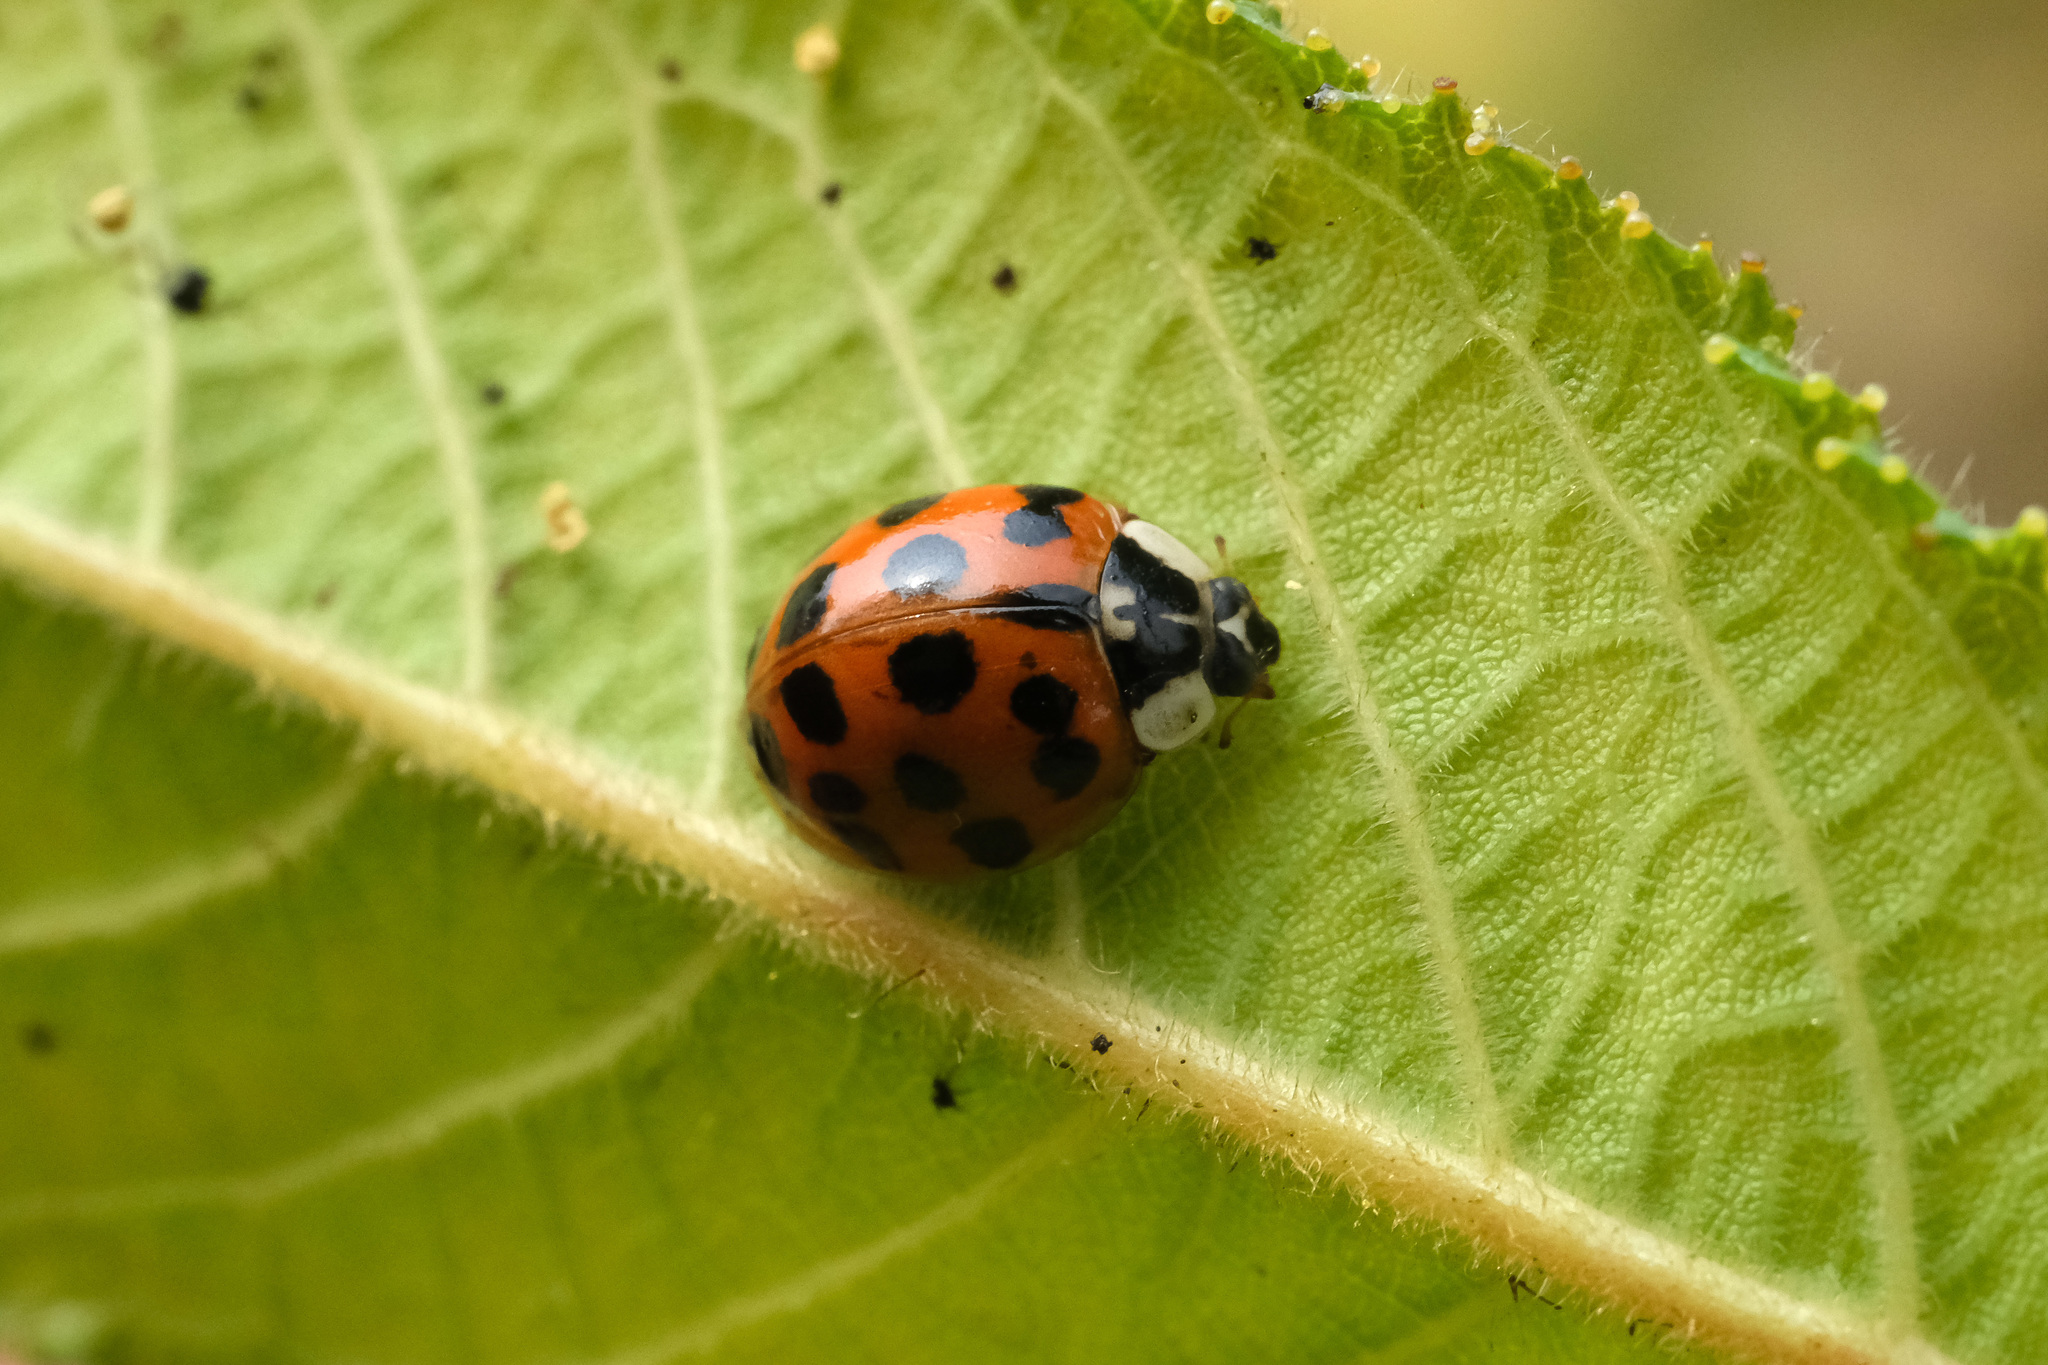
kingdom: Animalia
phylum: Arthropoda
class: Insecta
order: Coleoptera
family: Coccinellidae
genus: Harmonia
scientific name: Harmonia axyridis
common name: Harlequin ladybird
